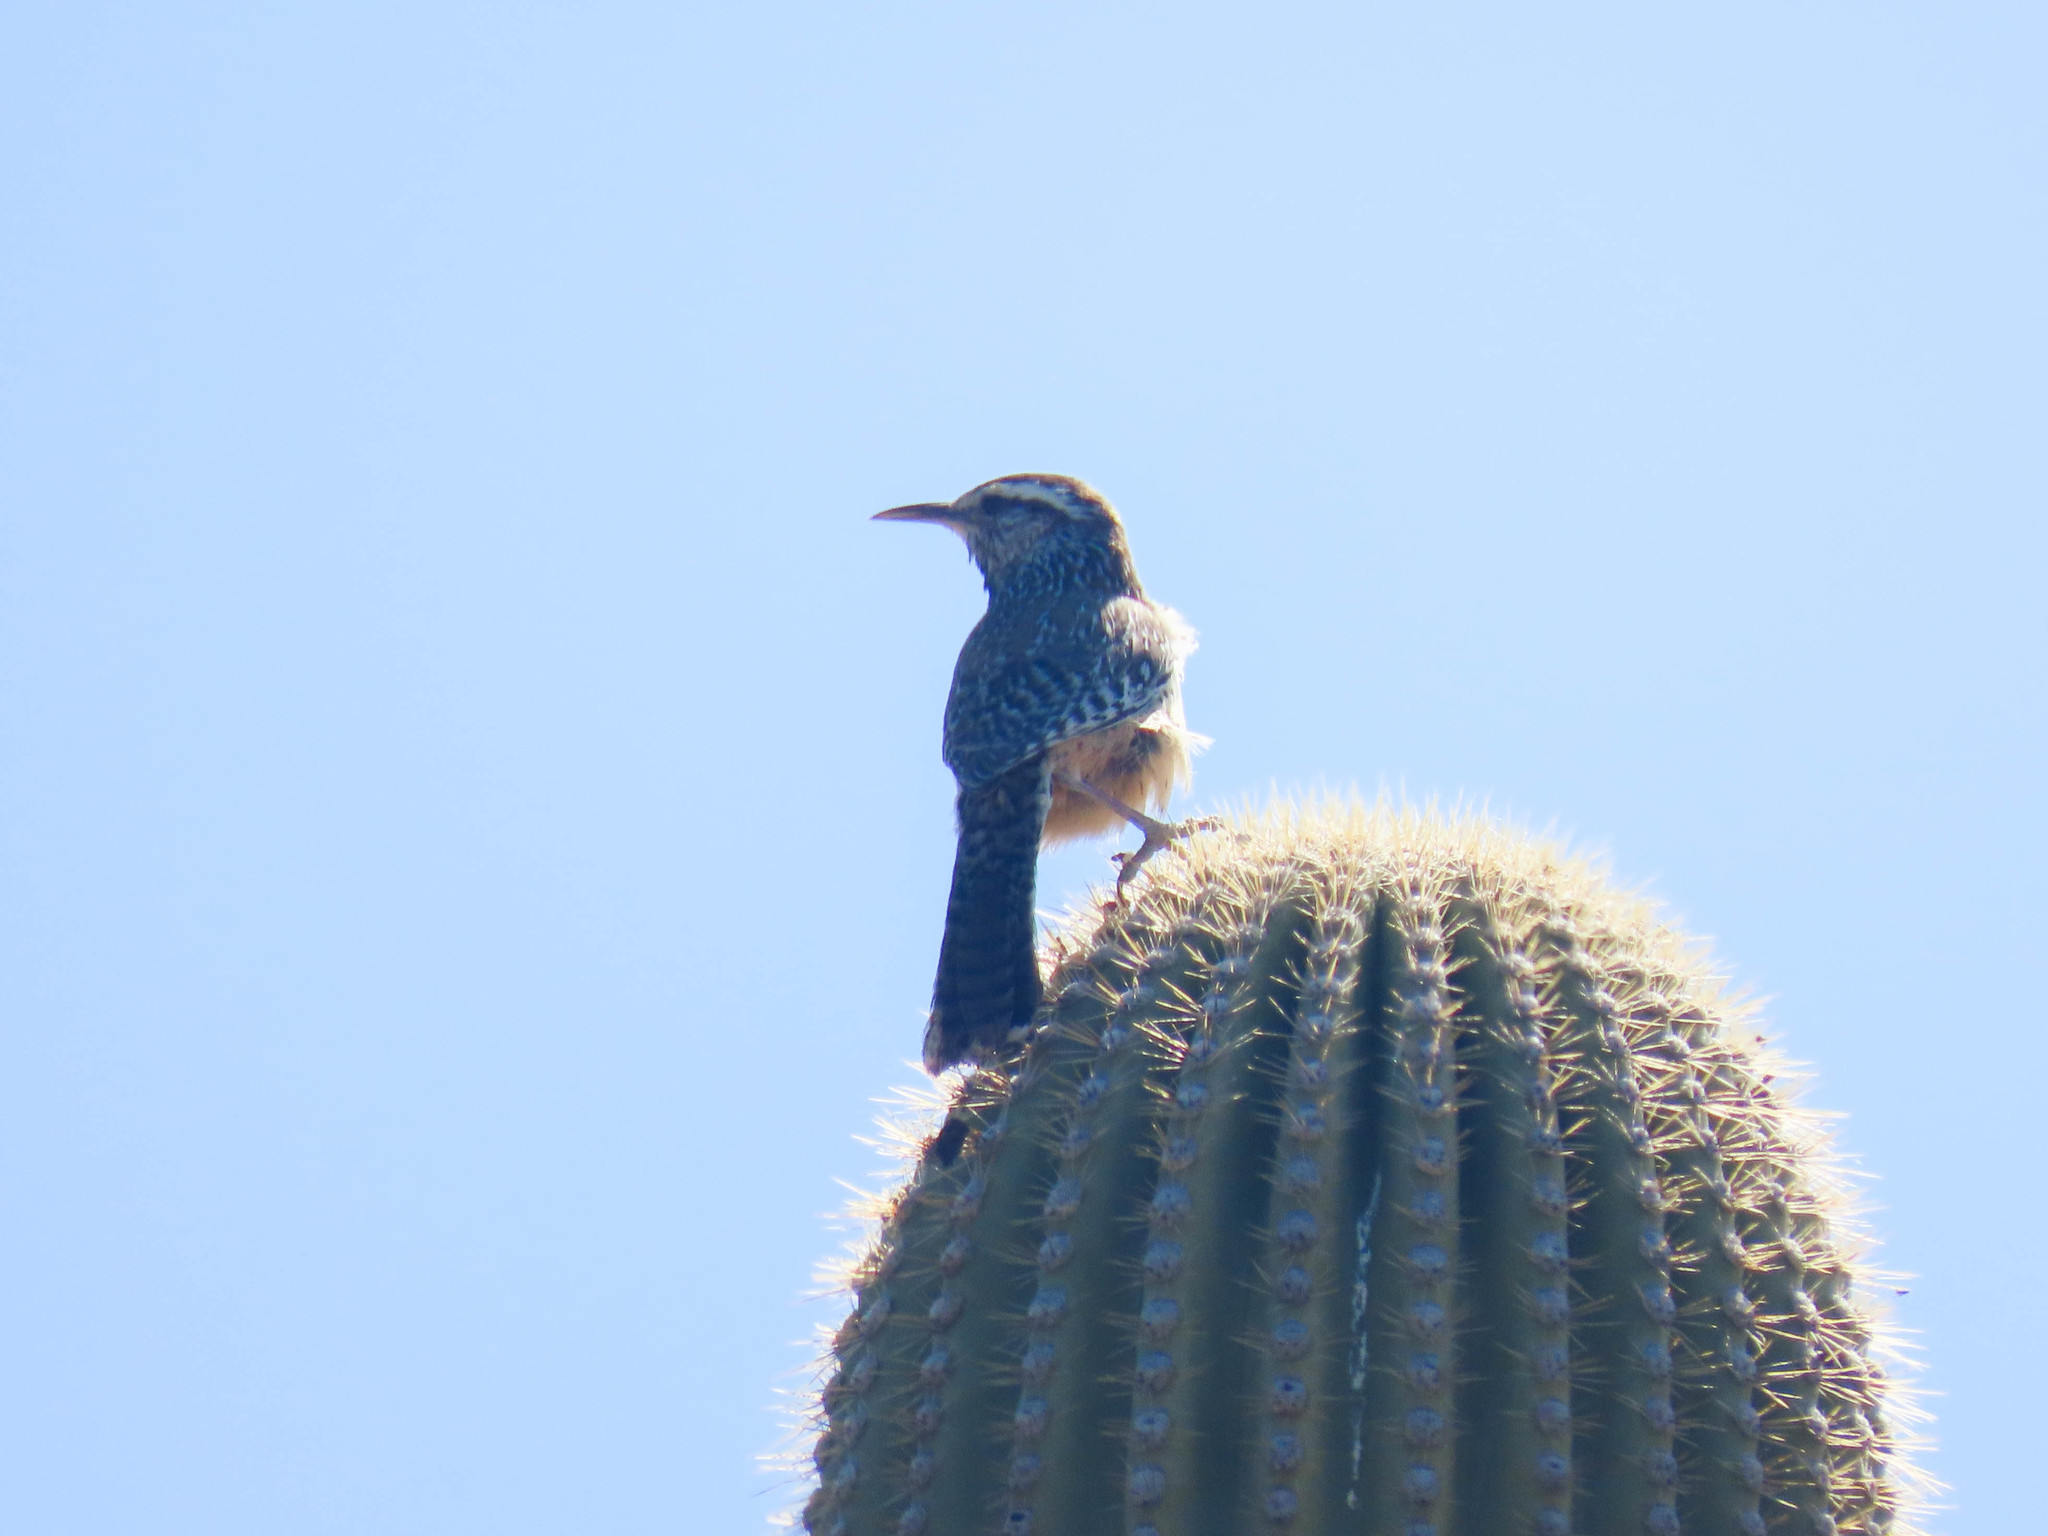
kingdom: Animalia
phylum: Chordata
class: Aves
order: Passeriformes
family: Troglodytidae
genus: Campylorhynchus
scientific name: Campylorhynchus brunneicapillus
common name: Cactus wren
